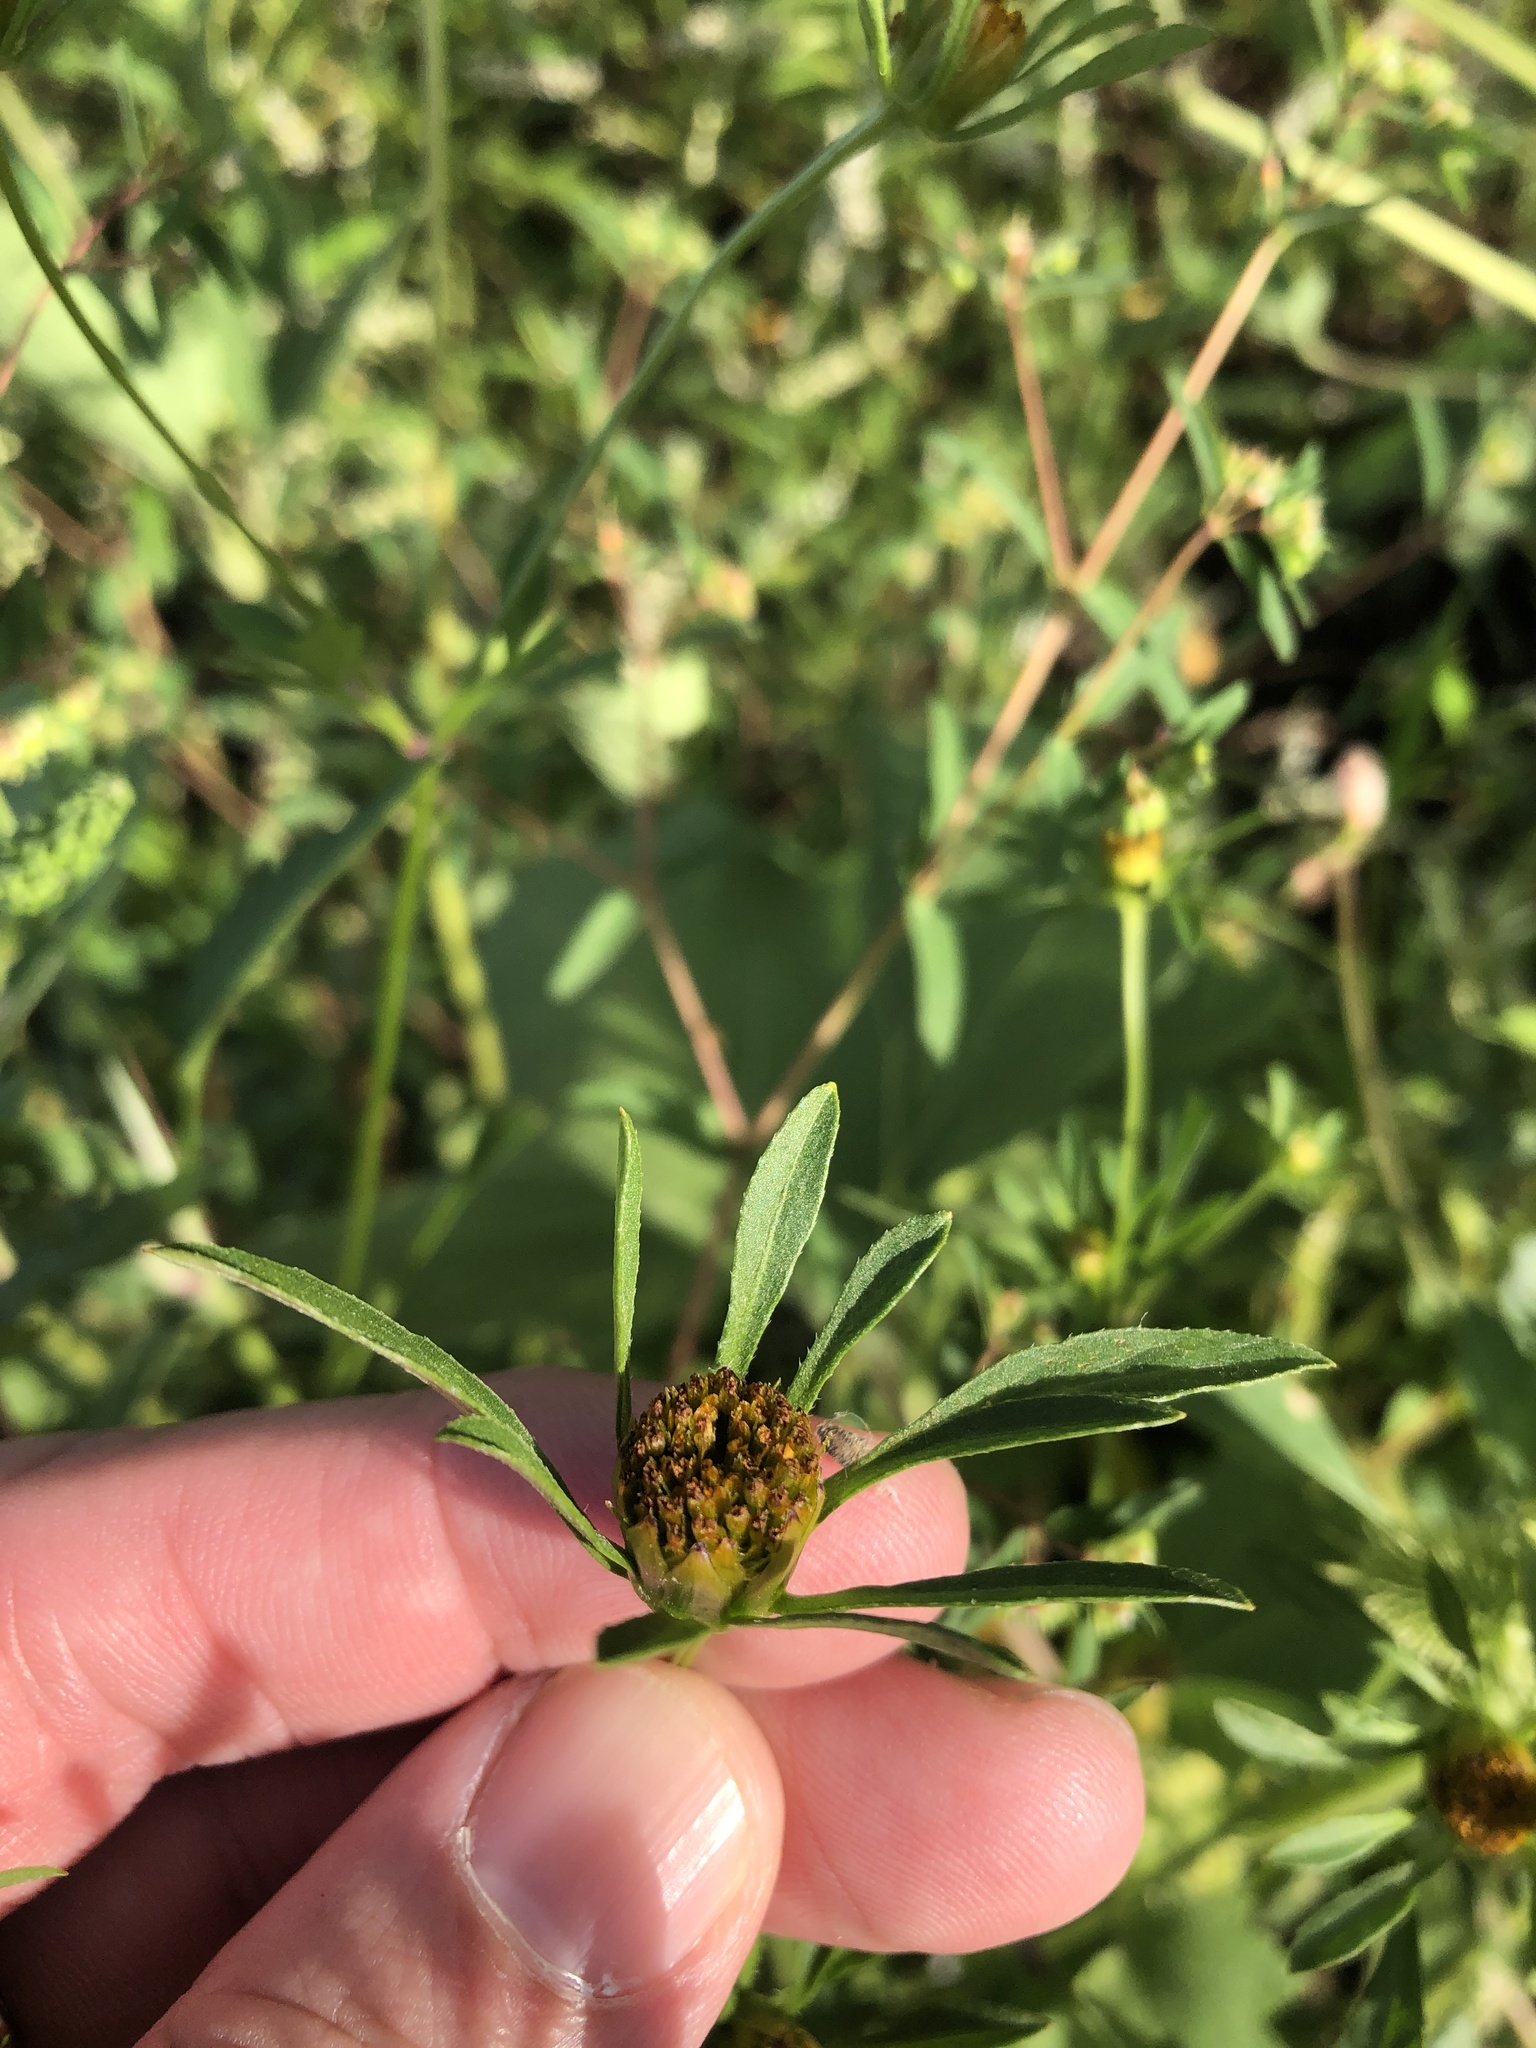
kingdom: Plantae
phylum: Tracheophyta
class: Magnoliopsida
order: Asterales
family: Asteraceae
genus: Bidens
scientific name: Bidens frondosa
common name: Beggarticks
